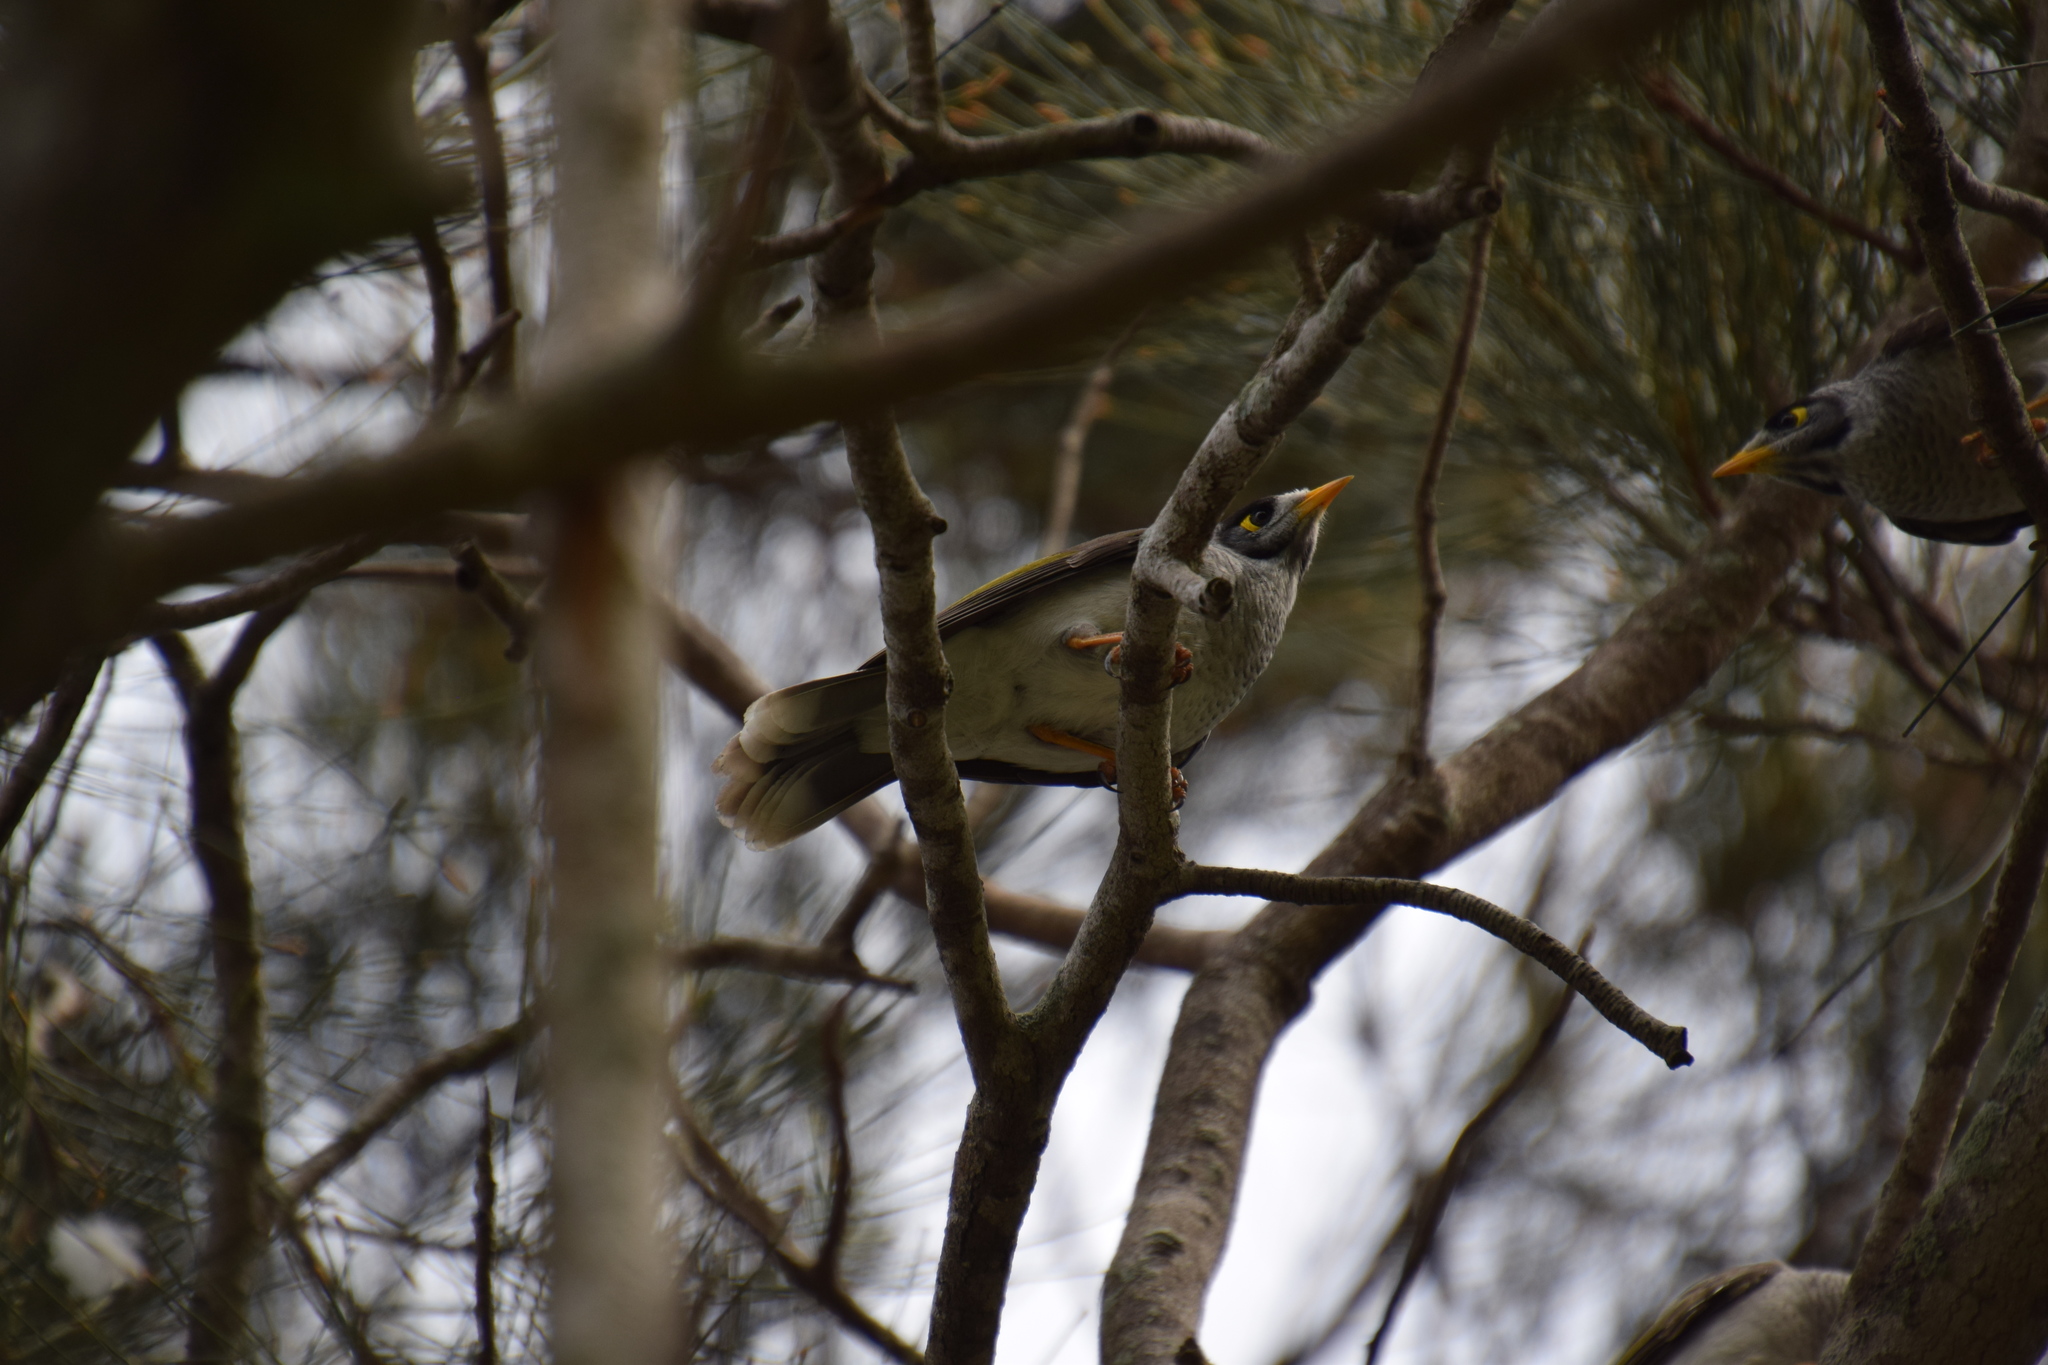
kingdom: Animalia
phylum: Chordata
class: Aves
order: Passeriformes
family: Meliphagidae
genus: Manorina
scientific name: Manorina melanocephala
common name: Noisy miner
